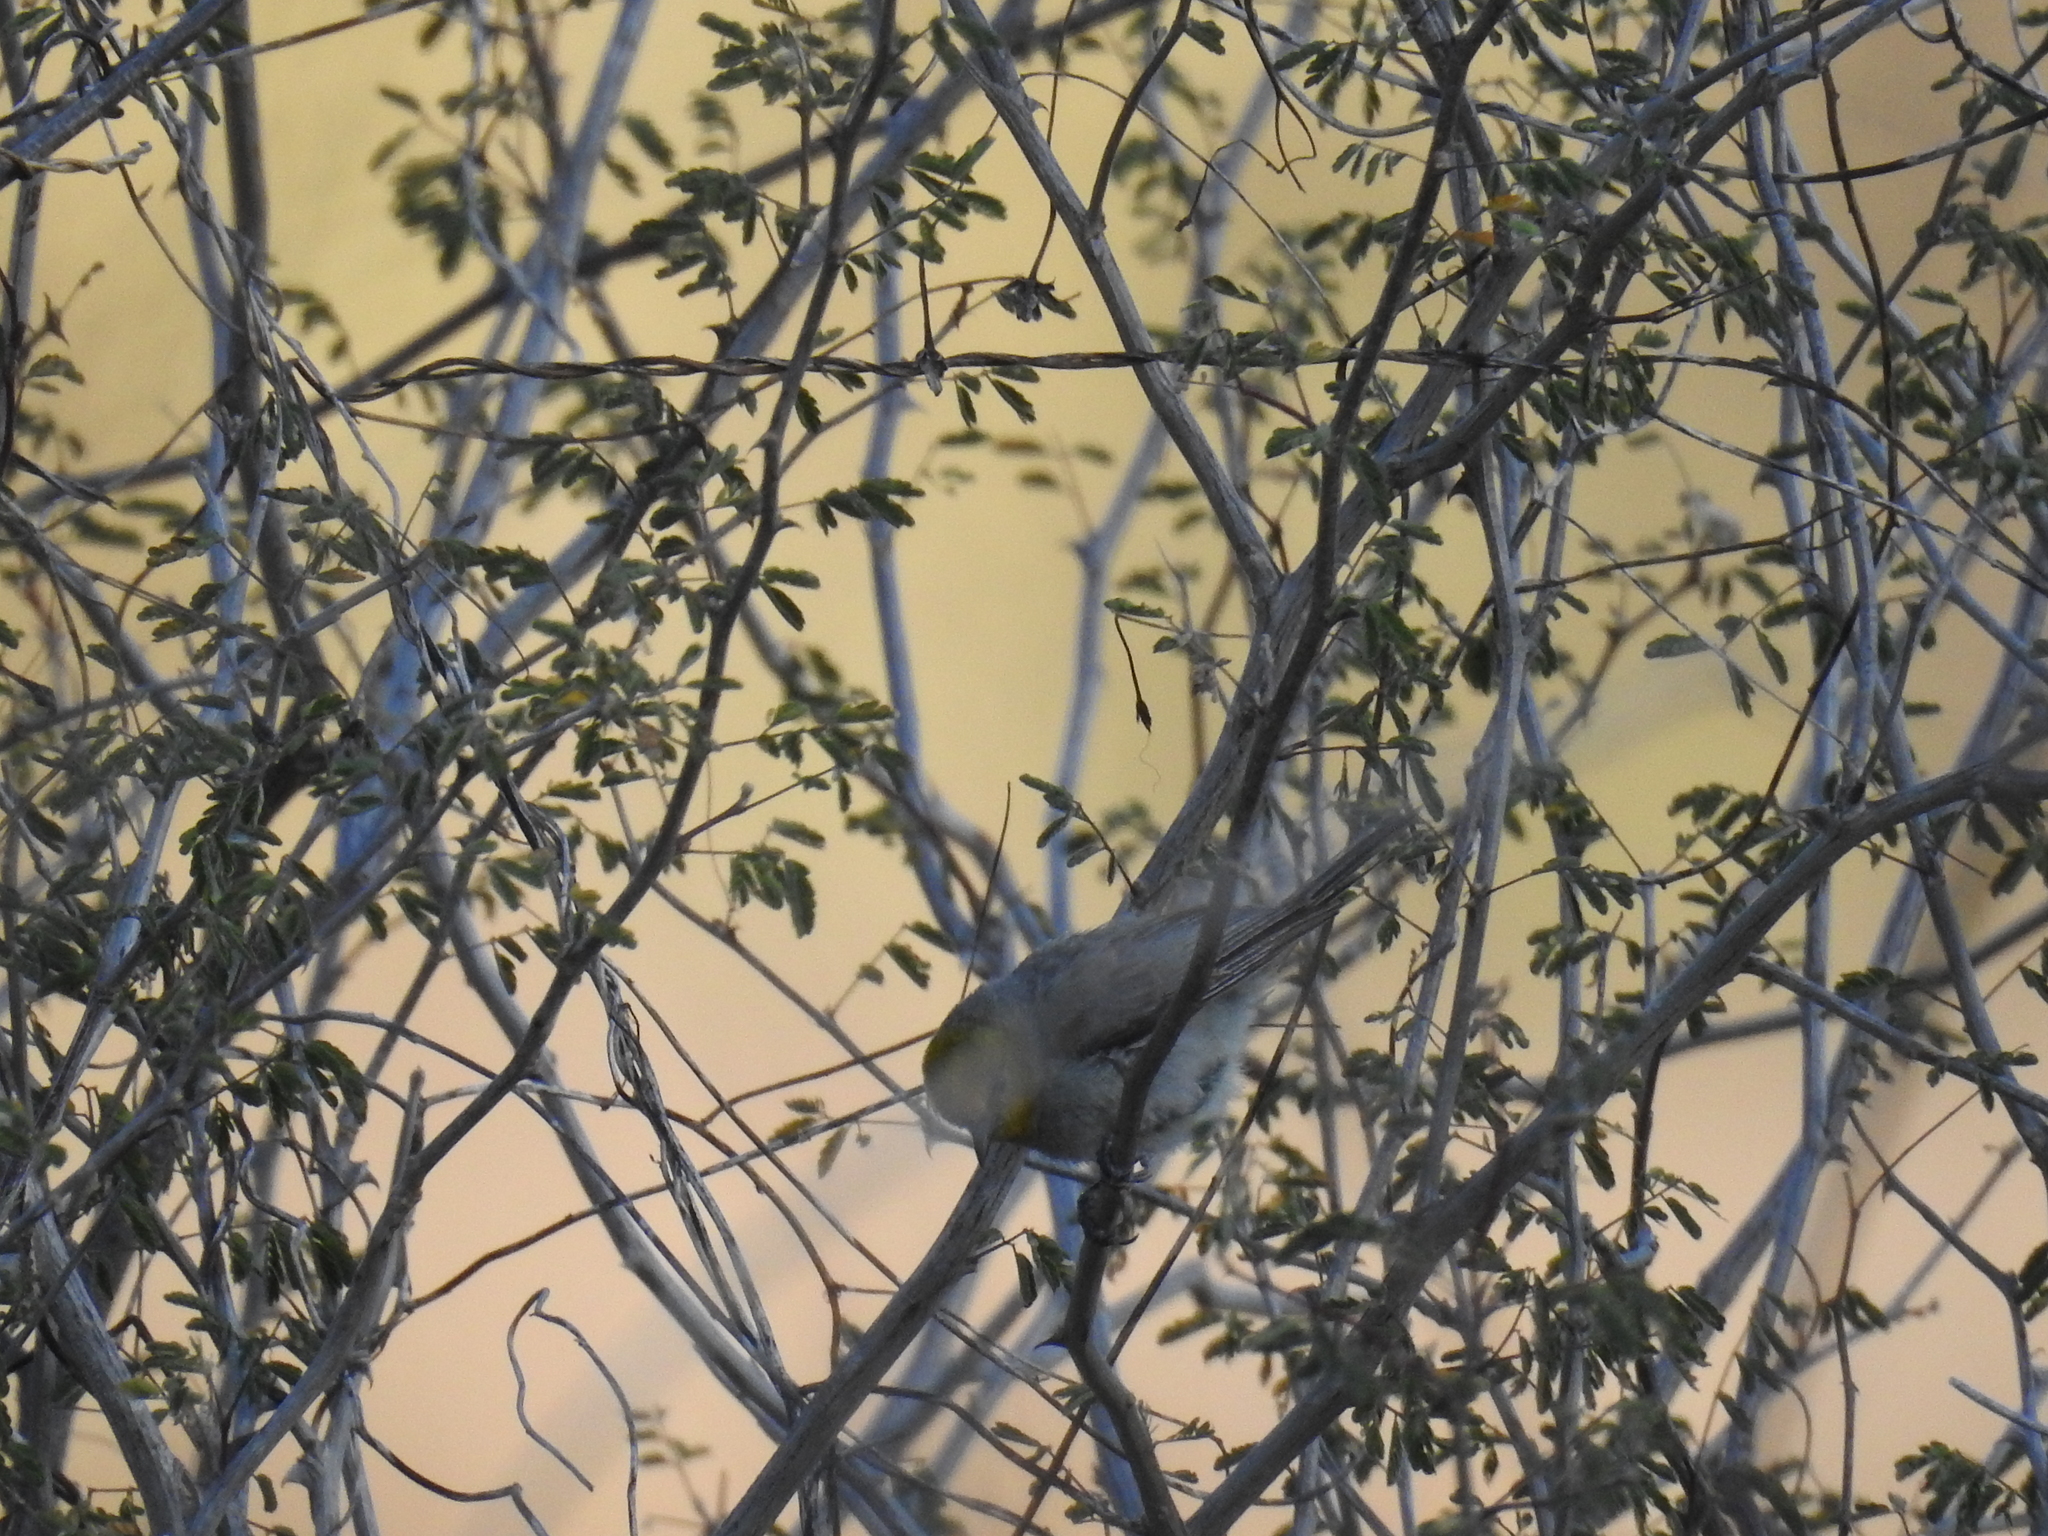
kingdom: Animalia
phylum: Chordata
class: Aves
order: Passeriformes
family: Remizidae
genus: Auriparus
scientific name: Auriparus flaviceps
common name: Verdin
